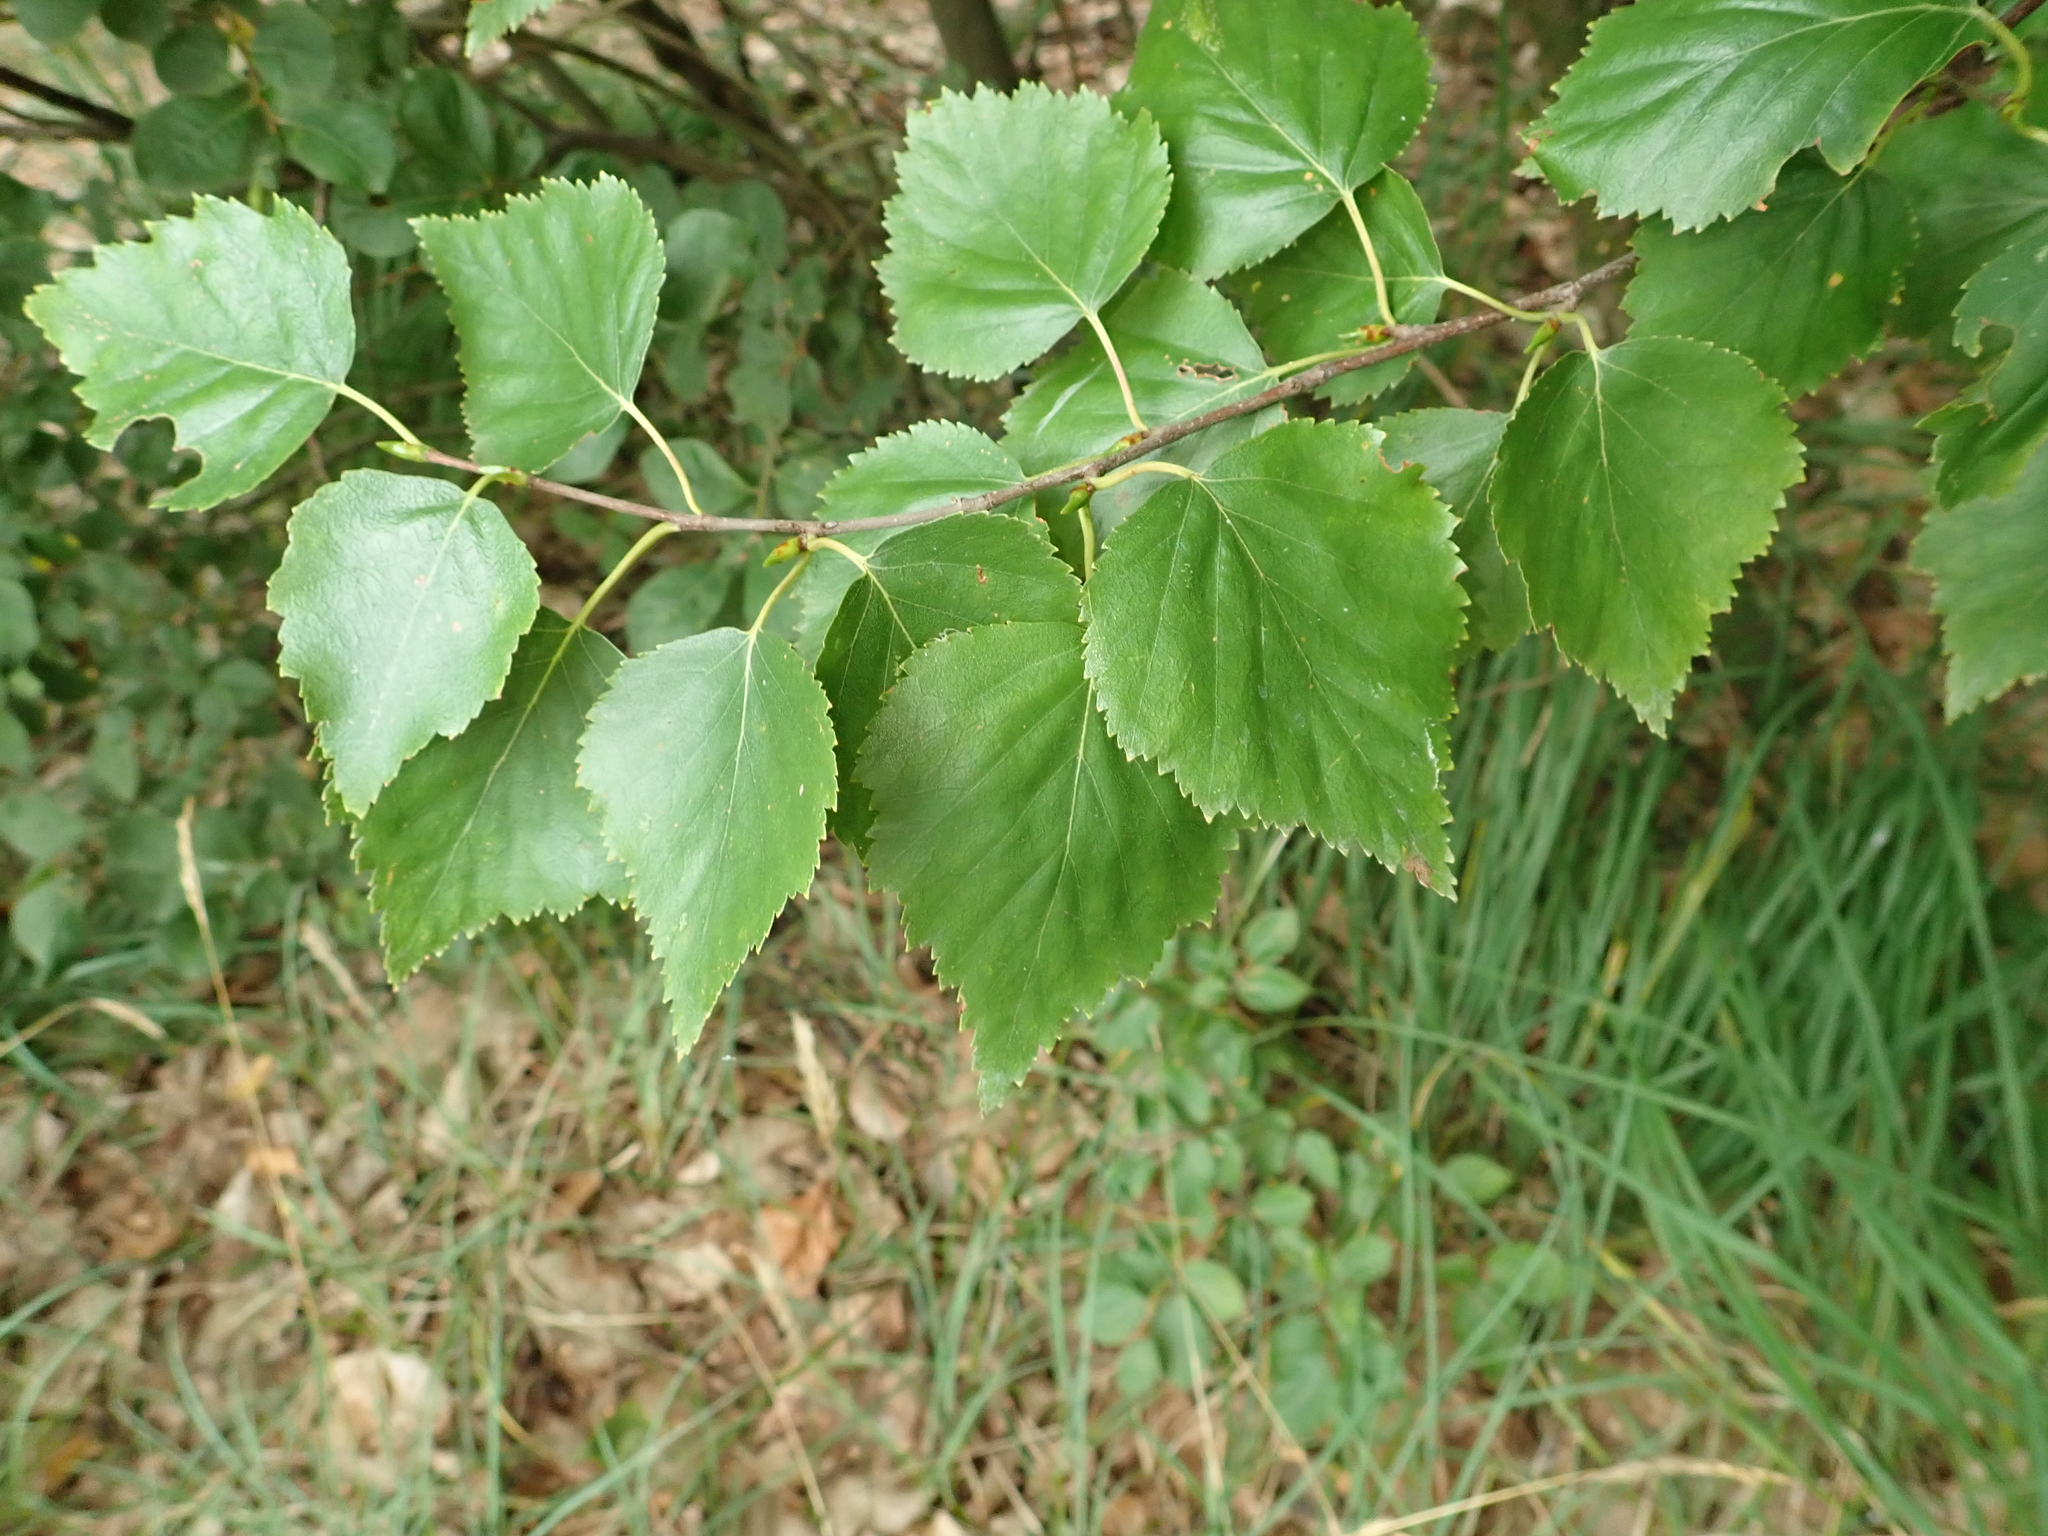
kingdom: Plantae
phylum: Tracheophyta
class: Magnoliopsida
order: Fagales
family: Betulaceae
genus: Betula
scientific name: Betula pendula
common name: Silver birch
